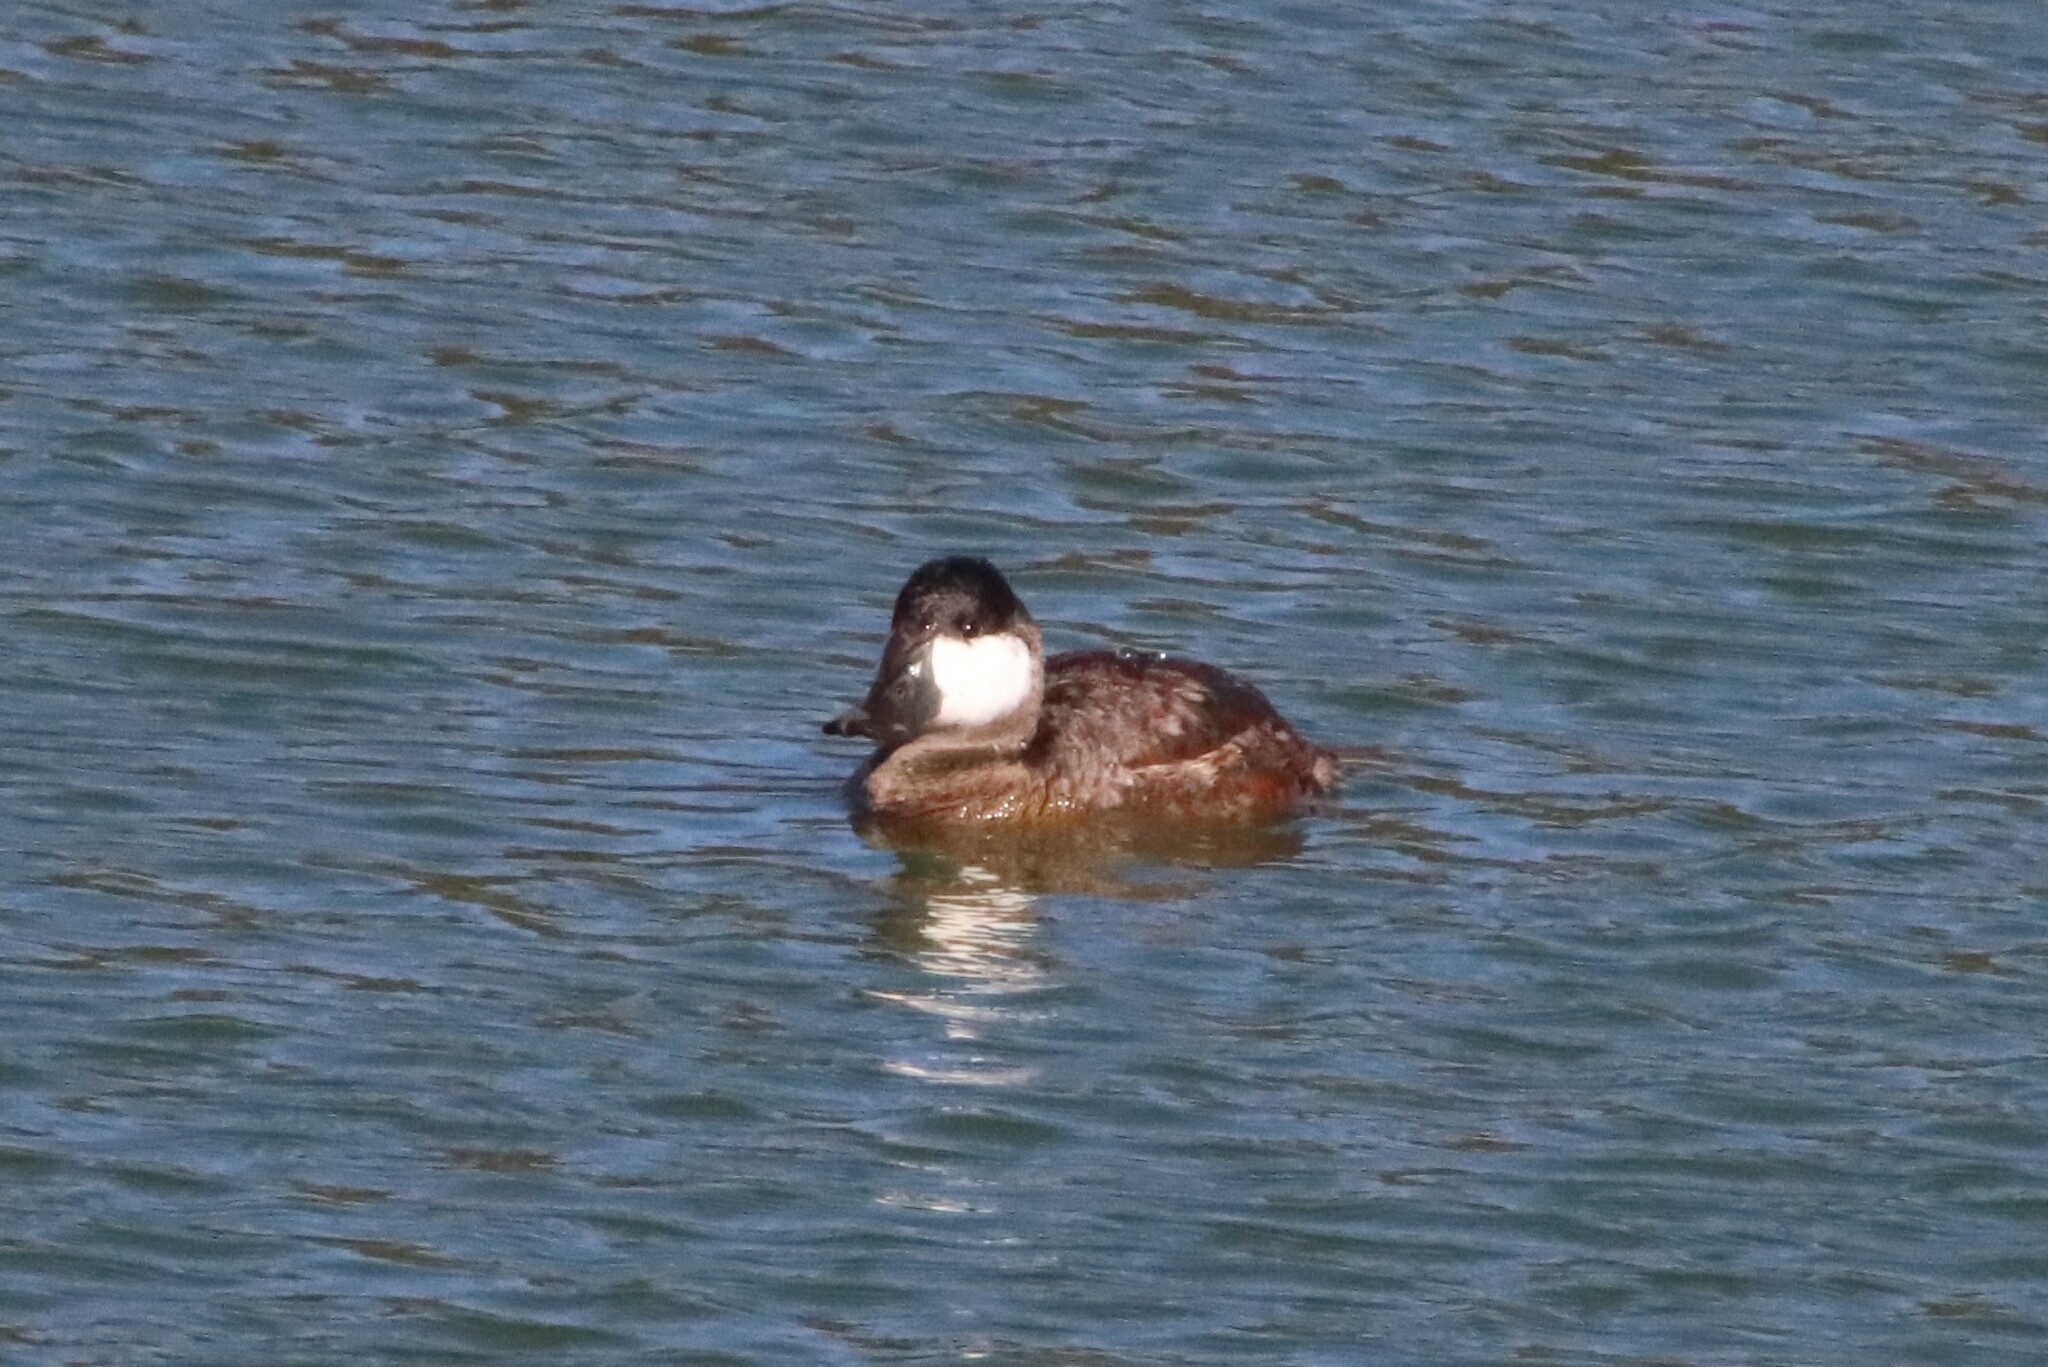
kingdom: Animalia
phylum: Chordata
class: Aves
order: Anseriformes
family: Anatidae
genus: Oxyura
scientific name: Oxyura jamaicensis
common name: Ruddy duck
